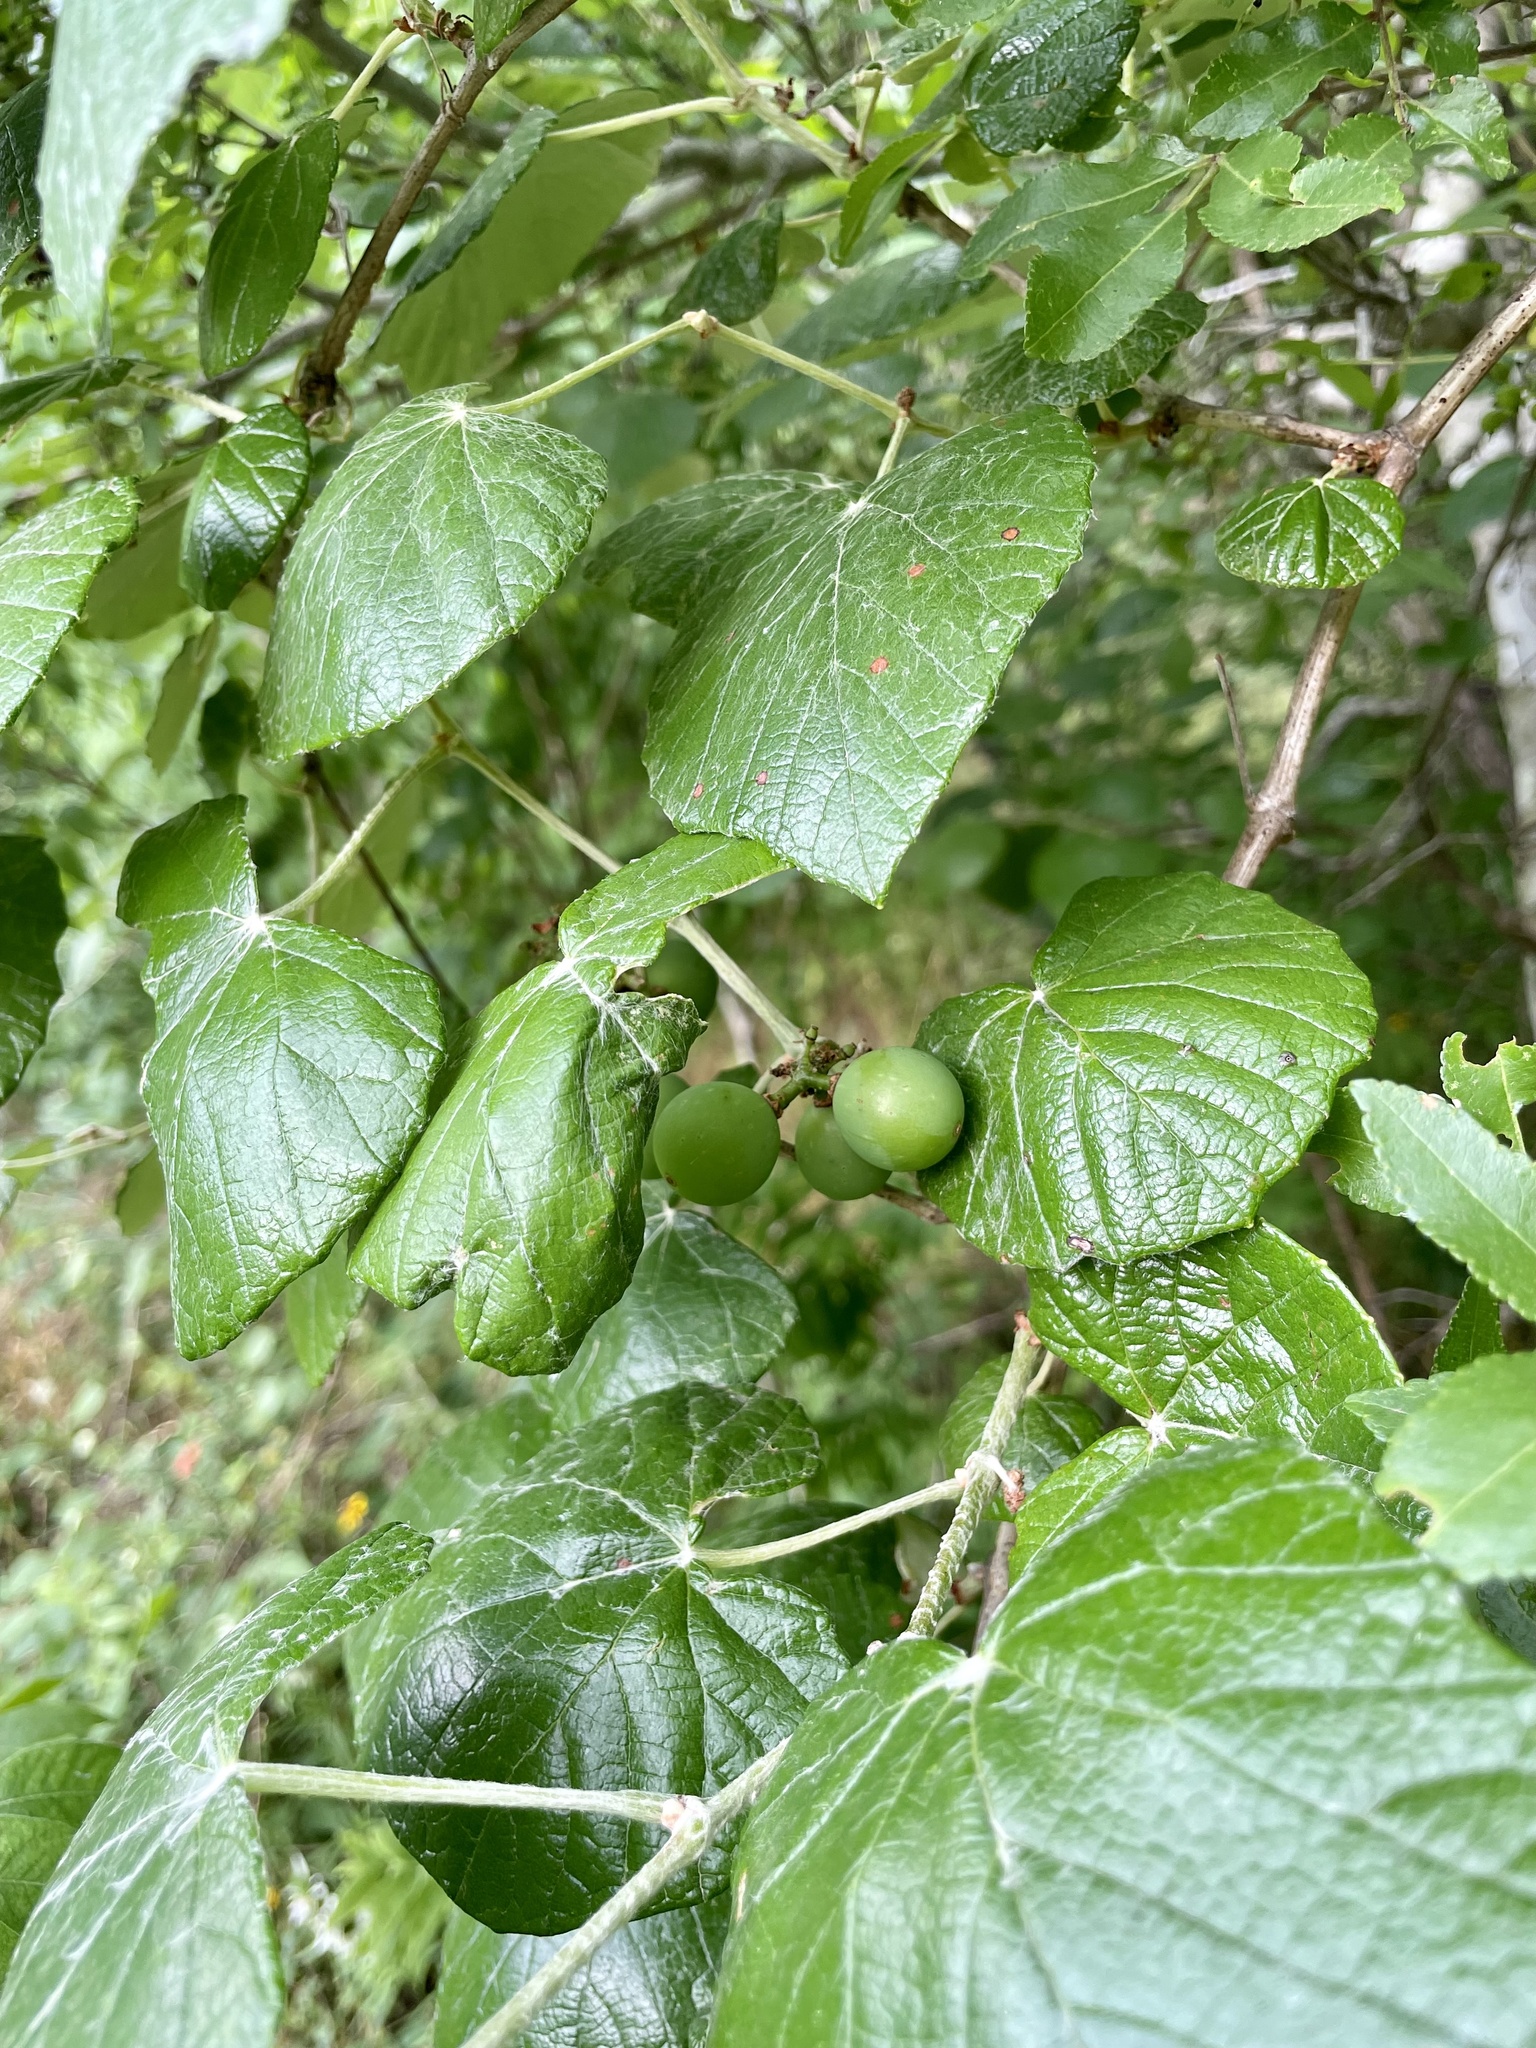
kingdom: Plantae
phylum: Tracheophyta
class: Magnoliopsida
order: Vitales
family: Vitaceae
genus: Vitis
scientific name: Vitis mustangensis
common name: Mustang grape
